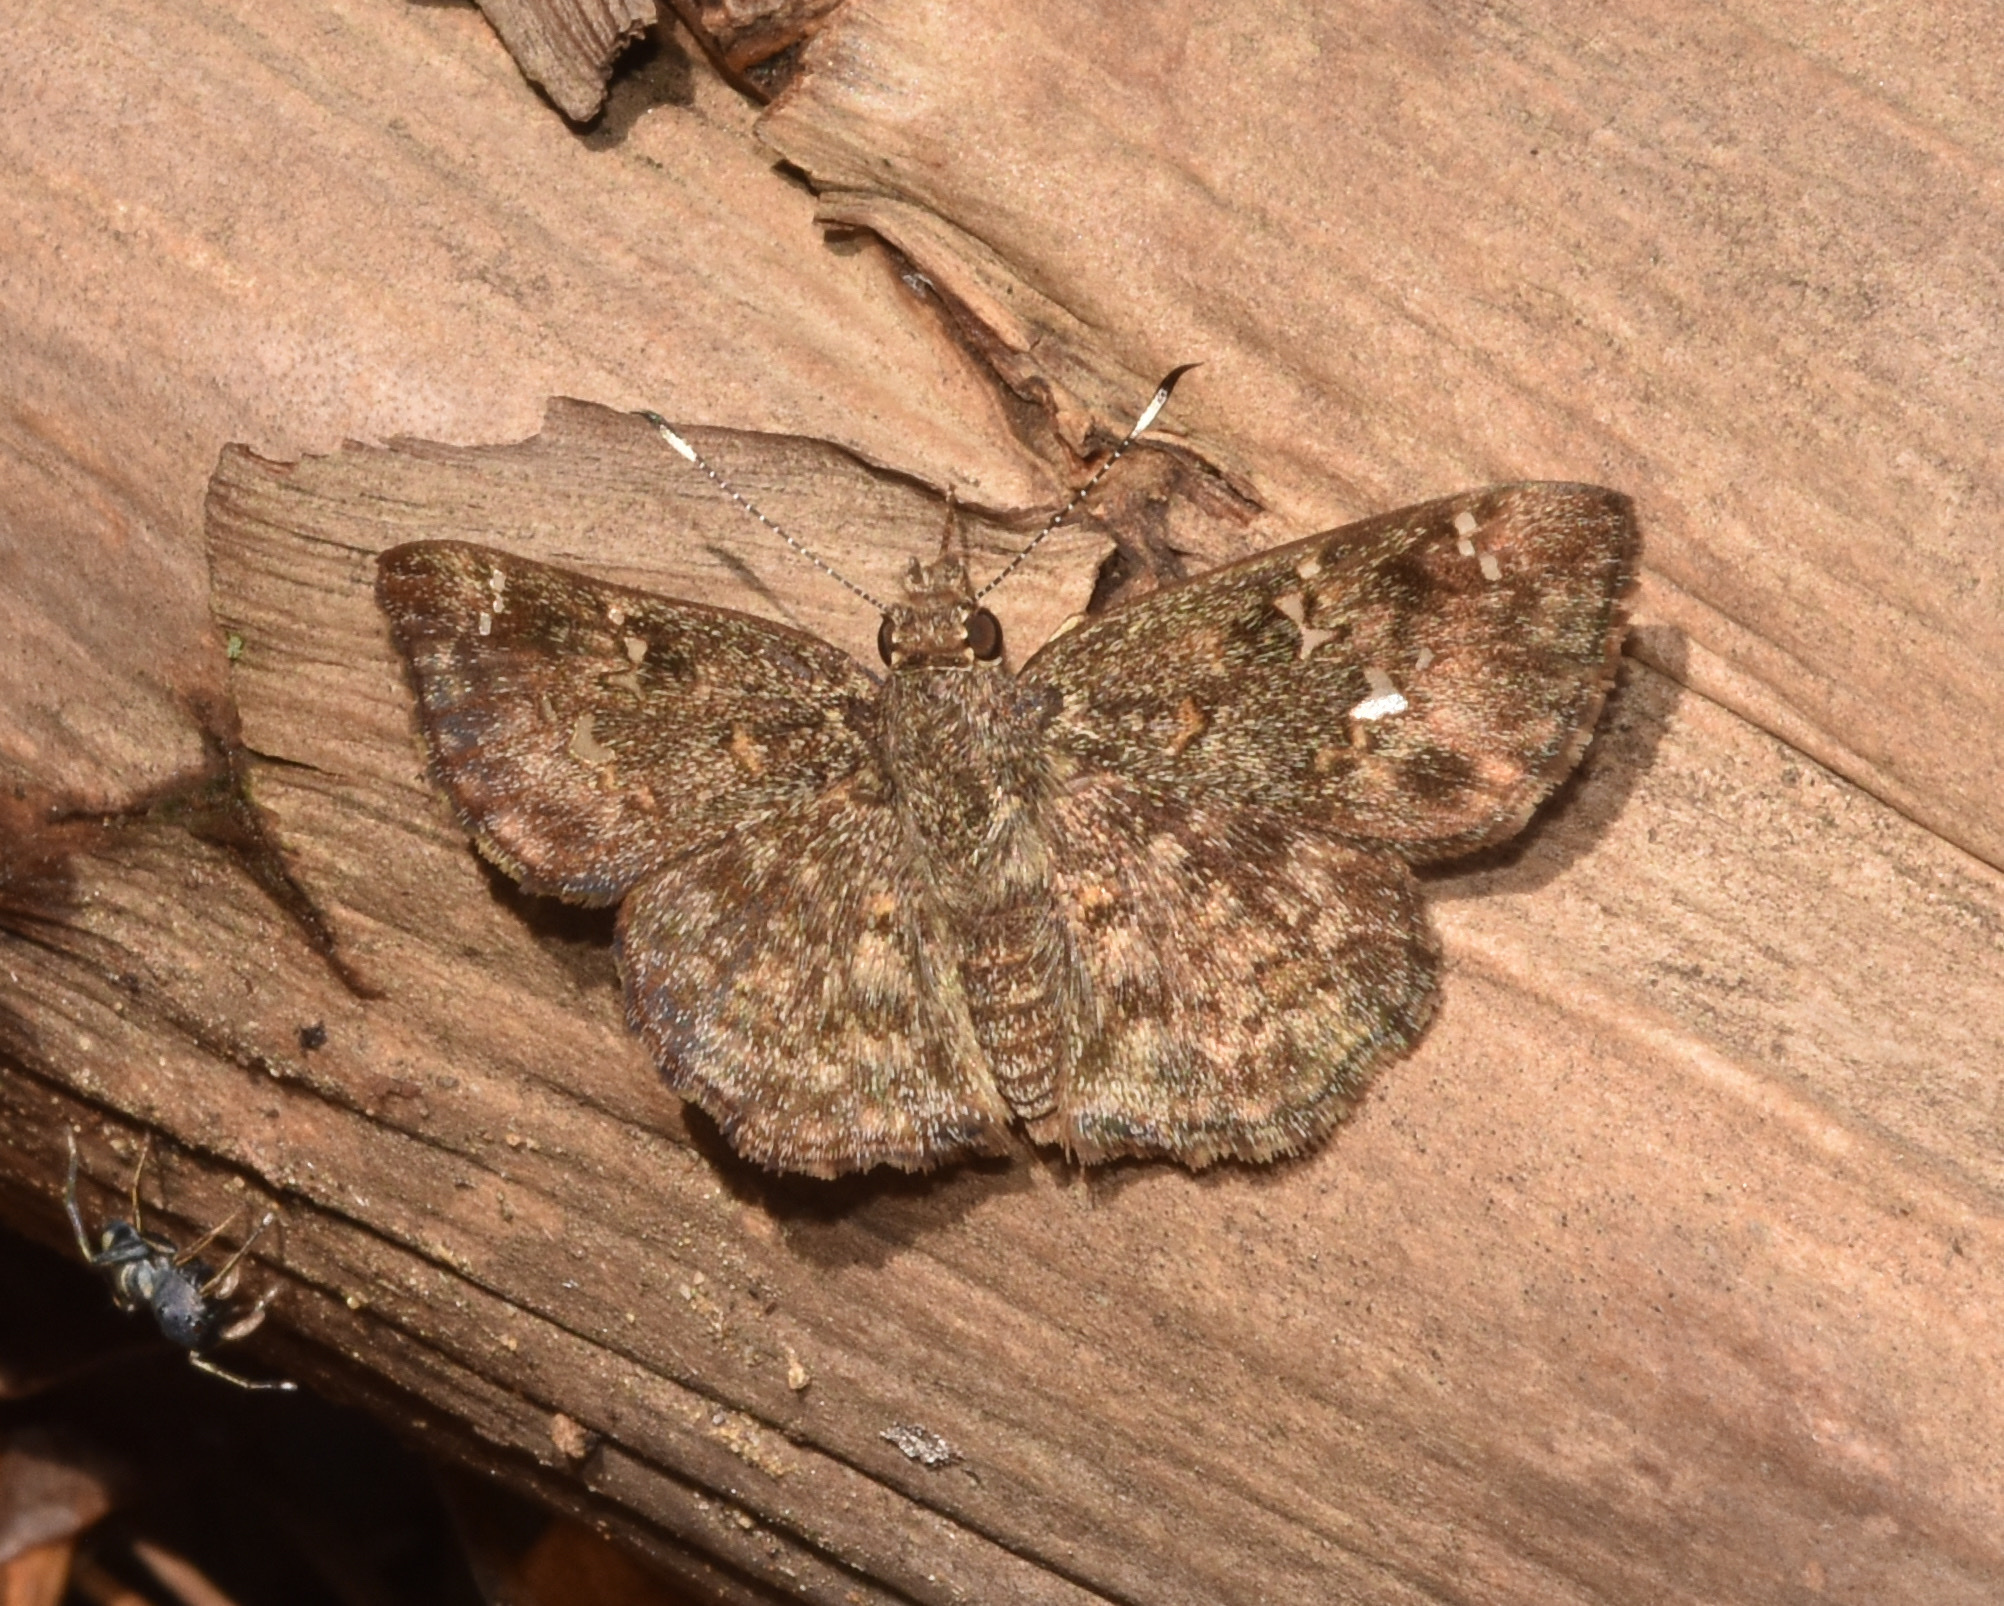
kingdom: Animalia
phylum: Arthropoda
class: Insecta
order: Lepidoptera
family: Hesperiidae
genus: Sarangesa
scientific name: Sarangesa seineri
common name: Dark elfin
